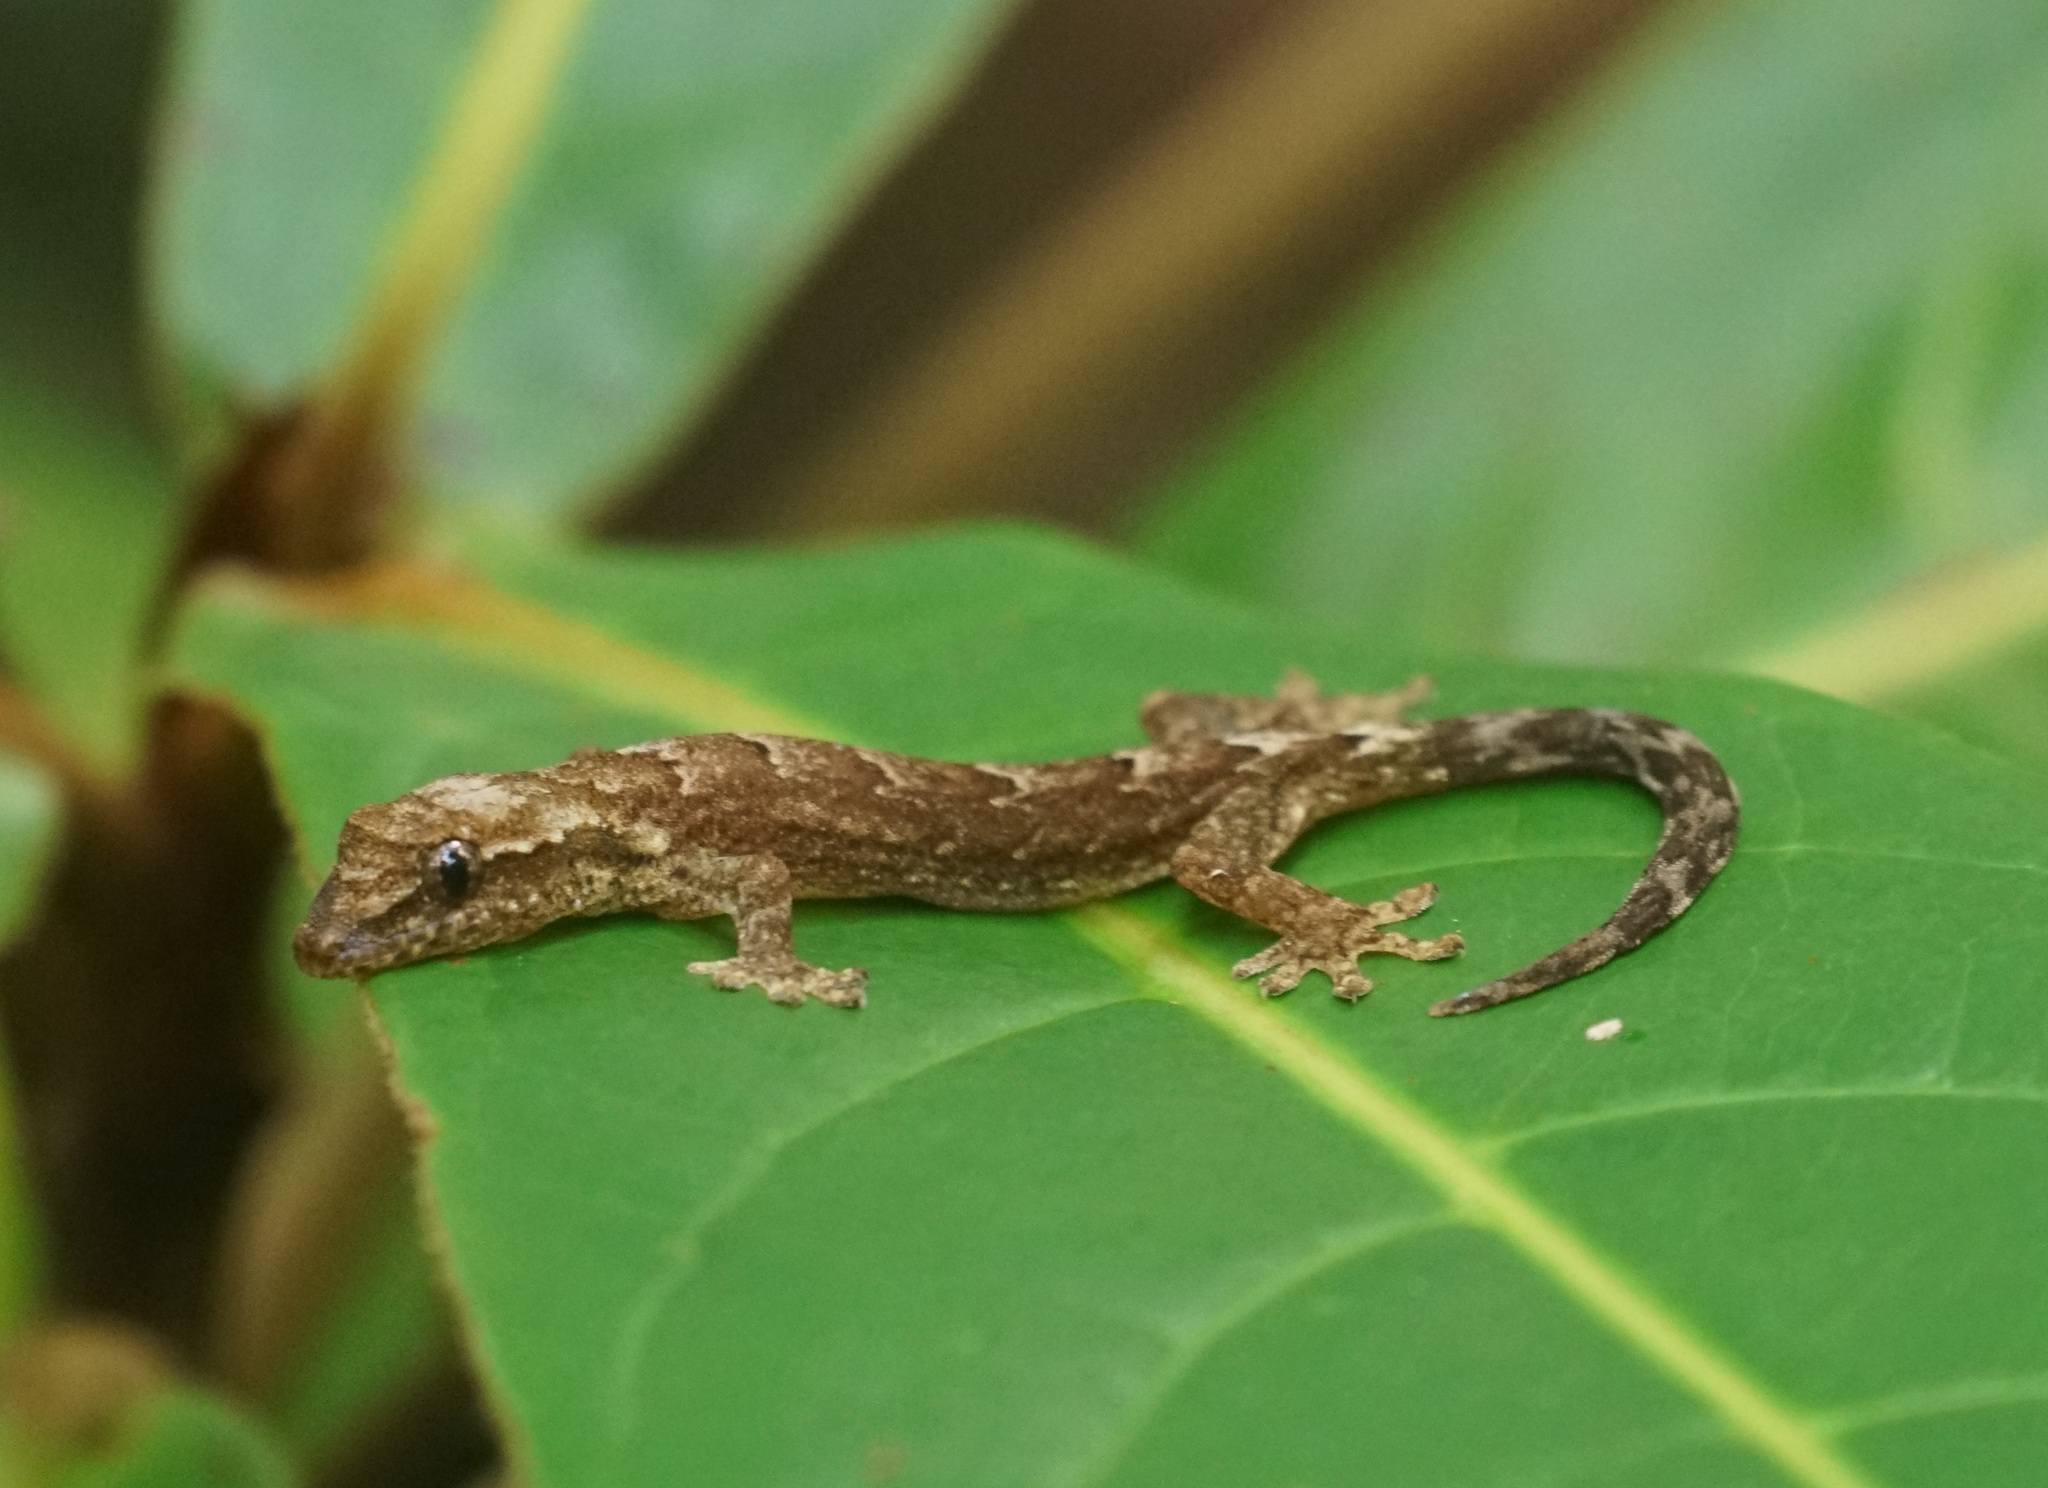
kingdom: Animalia
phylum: Chordata
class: Squamata
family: Gekkonidae
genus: Lepidodactylus
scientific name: Lepidodactylus lugubris
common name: Mourning gecko
